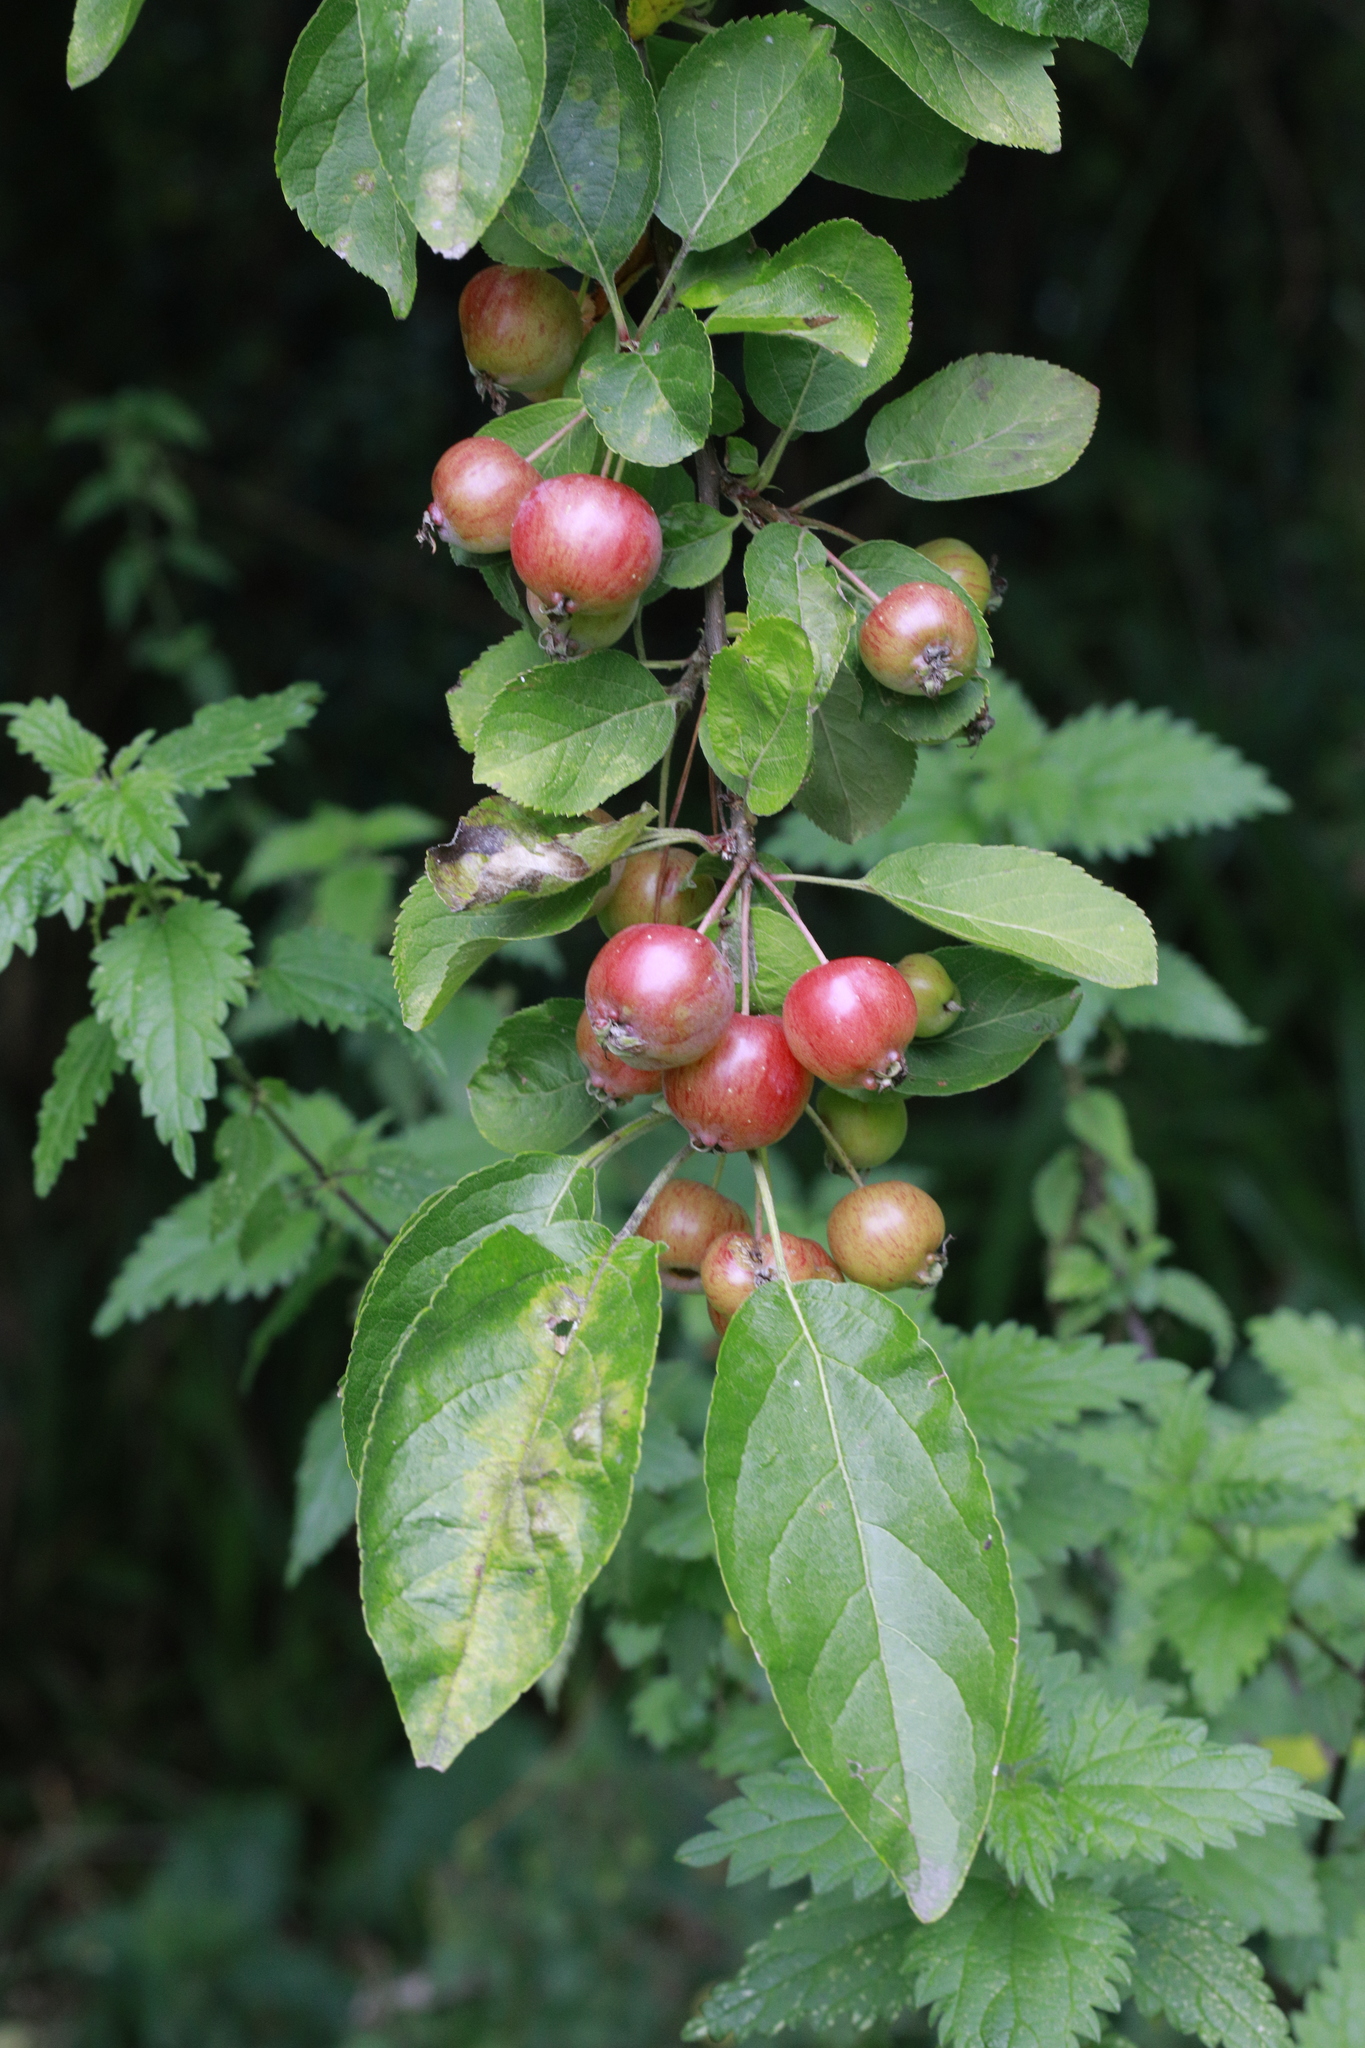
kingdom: Plantae
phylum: Tracheophyta
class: Magnoliopsida
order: Rosales
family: Rosaceae
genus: Malus
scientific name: Malus domestica
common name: Apple
